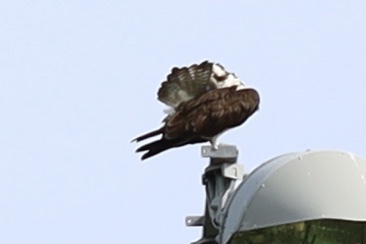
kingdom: Animalia
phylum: Chordata
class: Aves
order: Accipitriformes
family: Pandionidae
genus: Pandion
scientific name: Pandion haliaetus
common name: Osprey
